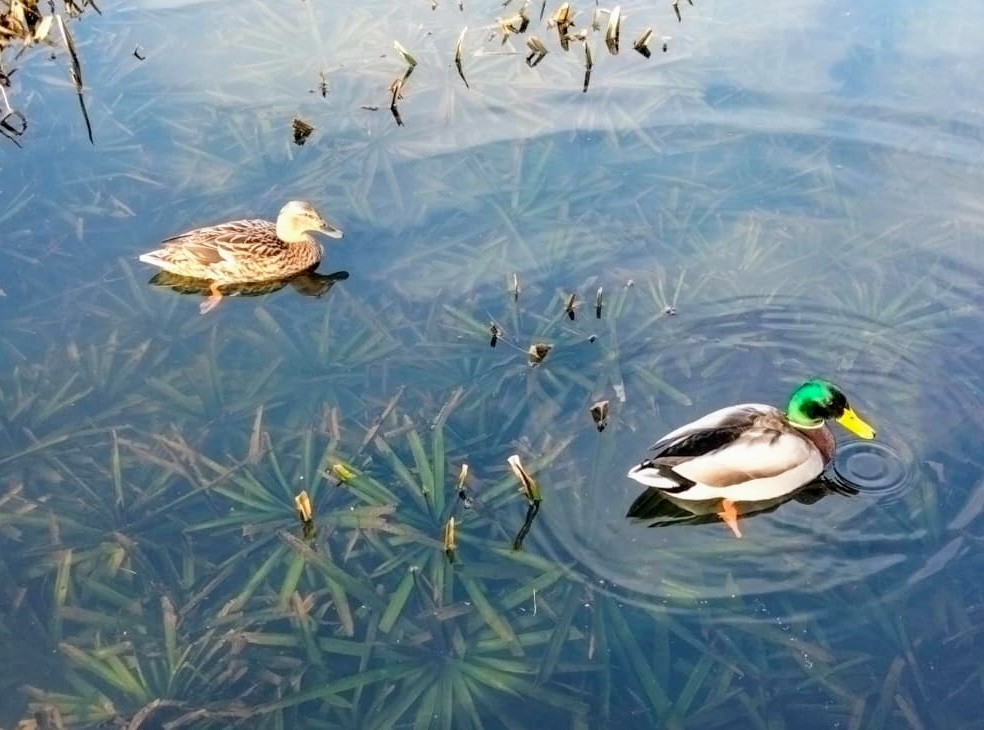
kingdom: Animalia
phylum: Chordata
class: Aves
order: Anseriformes
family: Anatidae
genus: Anas
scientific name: Anas platyrhynchos
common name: Mallard
